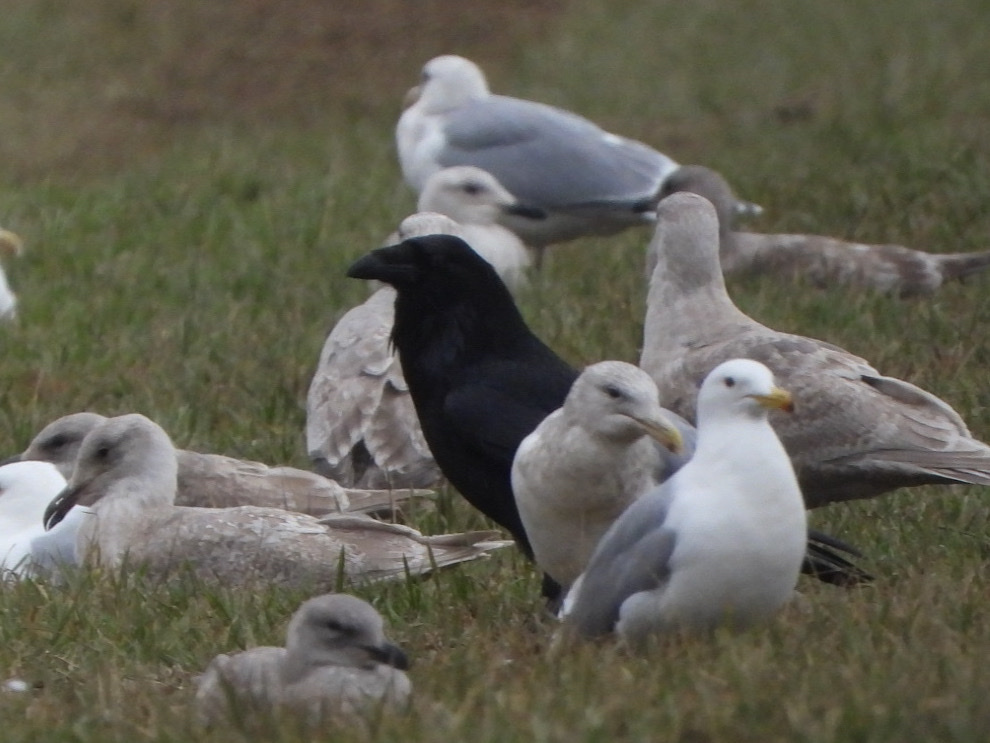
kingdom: Animalia
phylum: Chordata
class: Aves
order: Passeriformes
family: Corvidae
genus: Corvus
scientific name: Corvus corax
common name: Common raven
